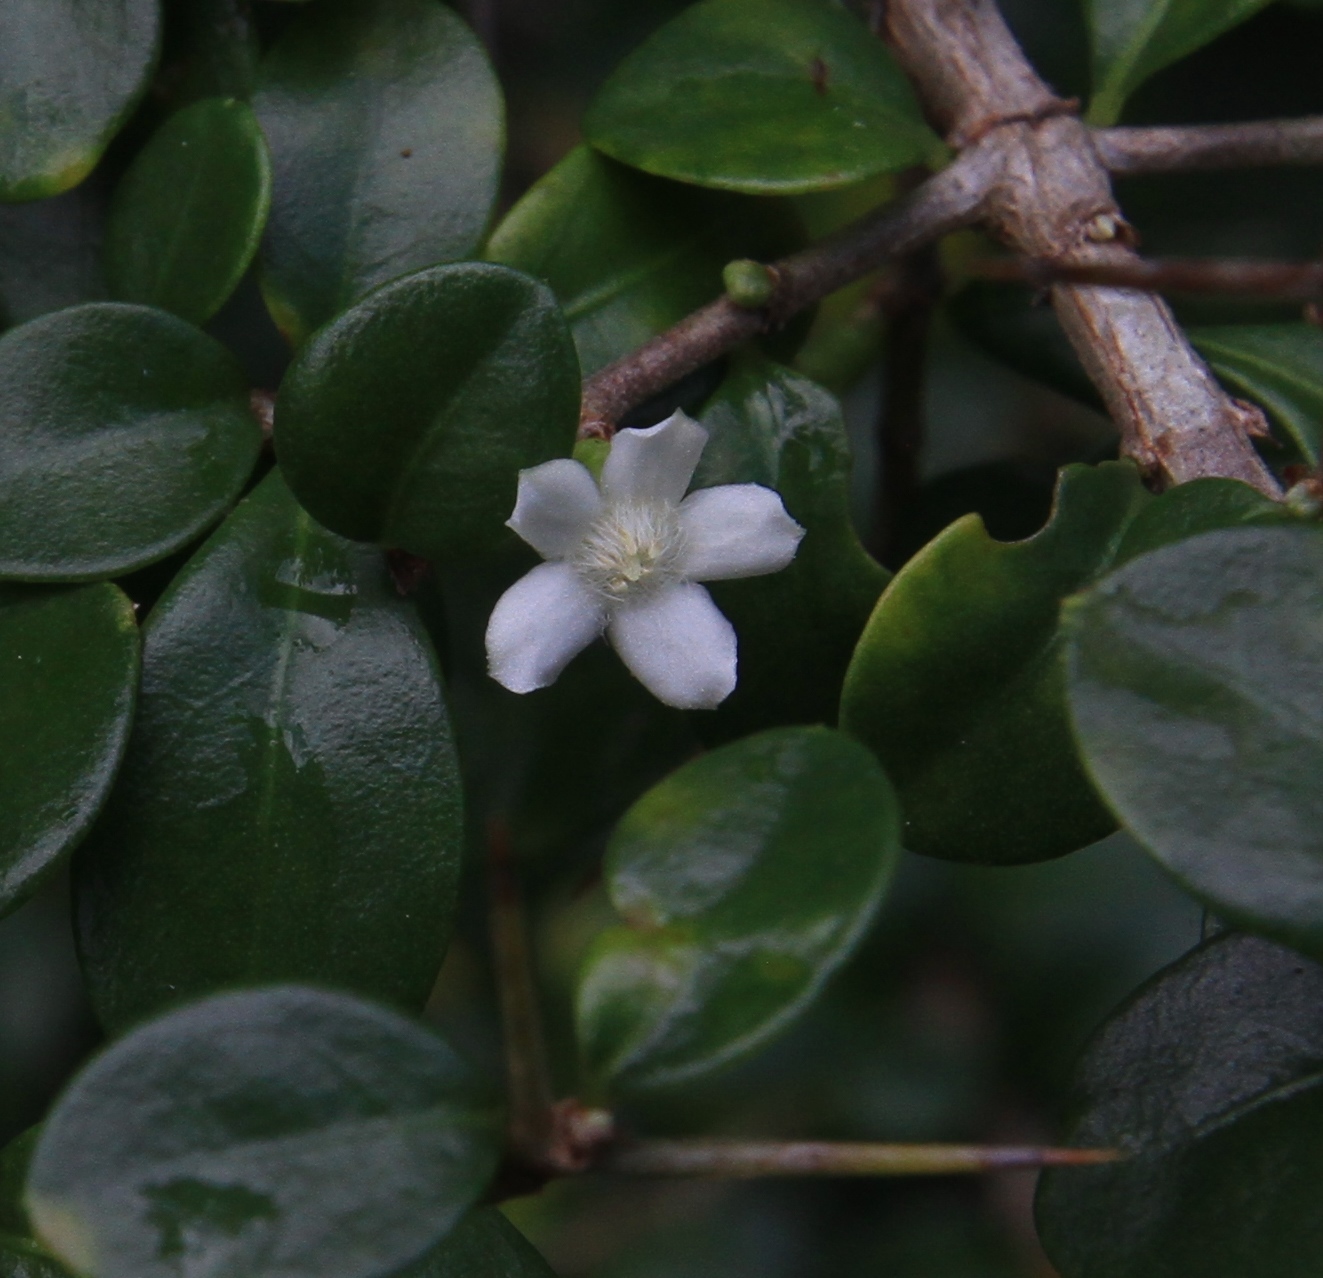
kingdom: Plantae
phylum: Tracheophyta
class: Magnoliopsida
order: Gentianales
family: Rubiaceae
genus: Randia
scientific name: Randia aculeata
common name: Inkberry
